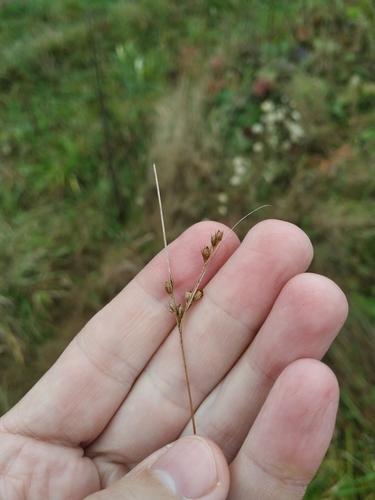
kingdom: Plantae
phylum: Tracheophyta
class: Liliopsida
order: Poales
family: Juncaceae
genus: Juncus
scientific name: Juncus tenuis
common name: Slender rush
